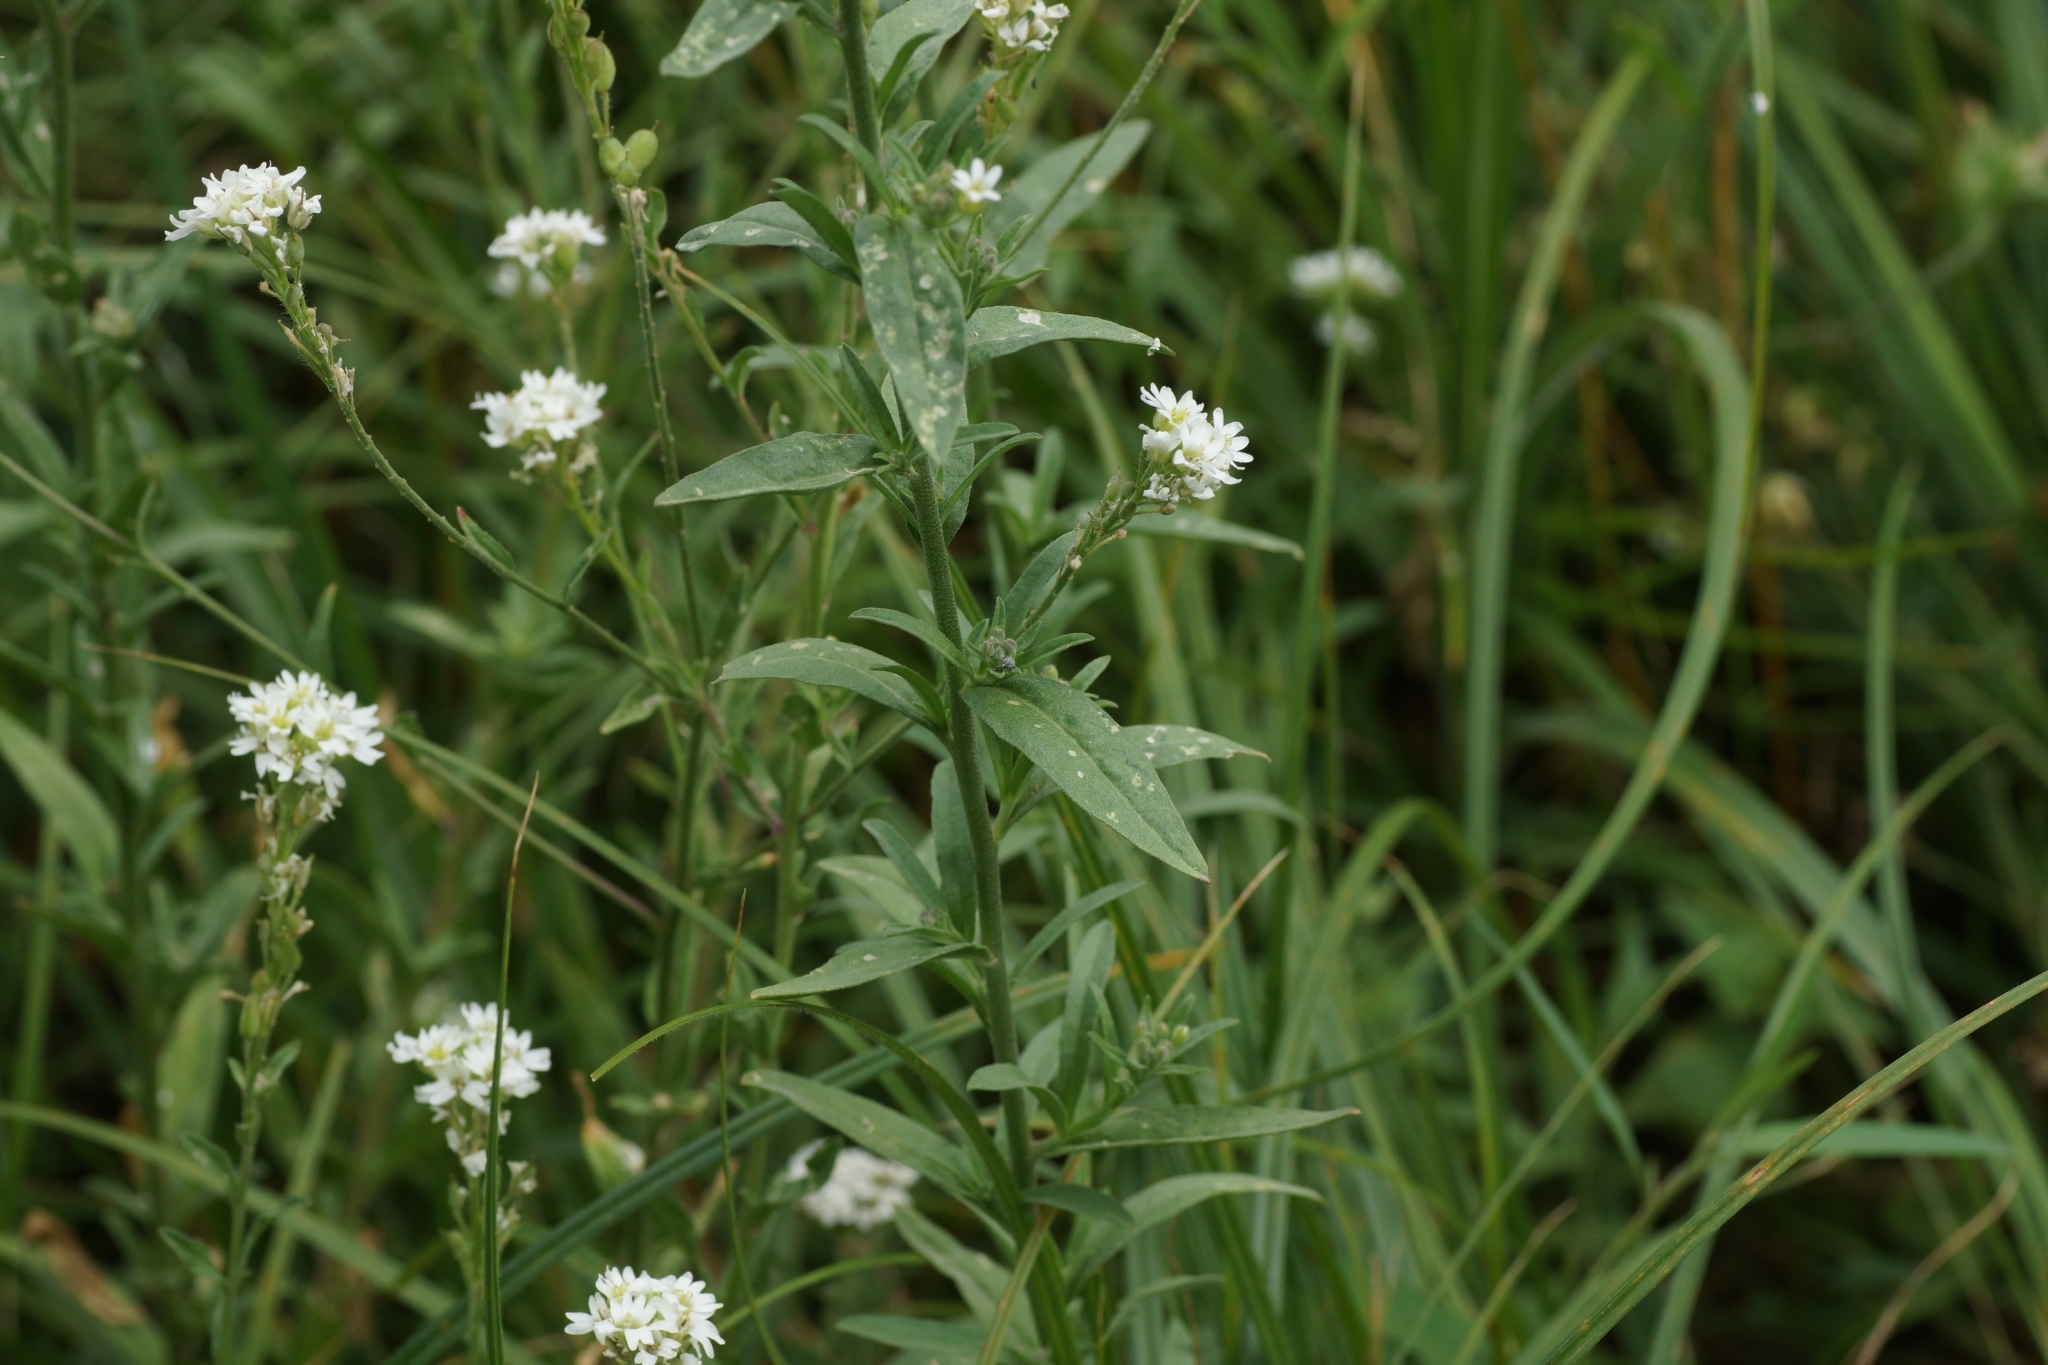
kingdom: Plantae
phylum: Tracheophyta
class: Magnoliopsida
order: Brassicales
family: Brassicaceae
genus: Berteroa
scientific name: Berteroa incana
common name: Hoary alison
